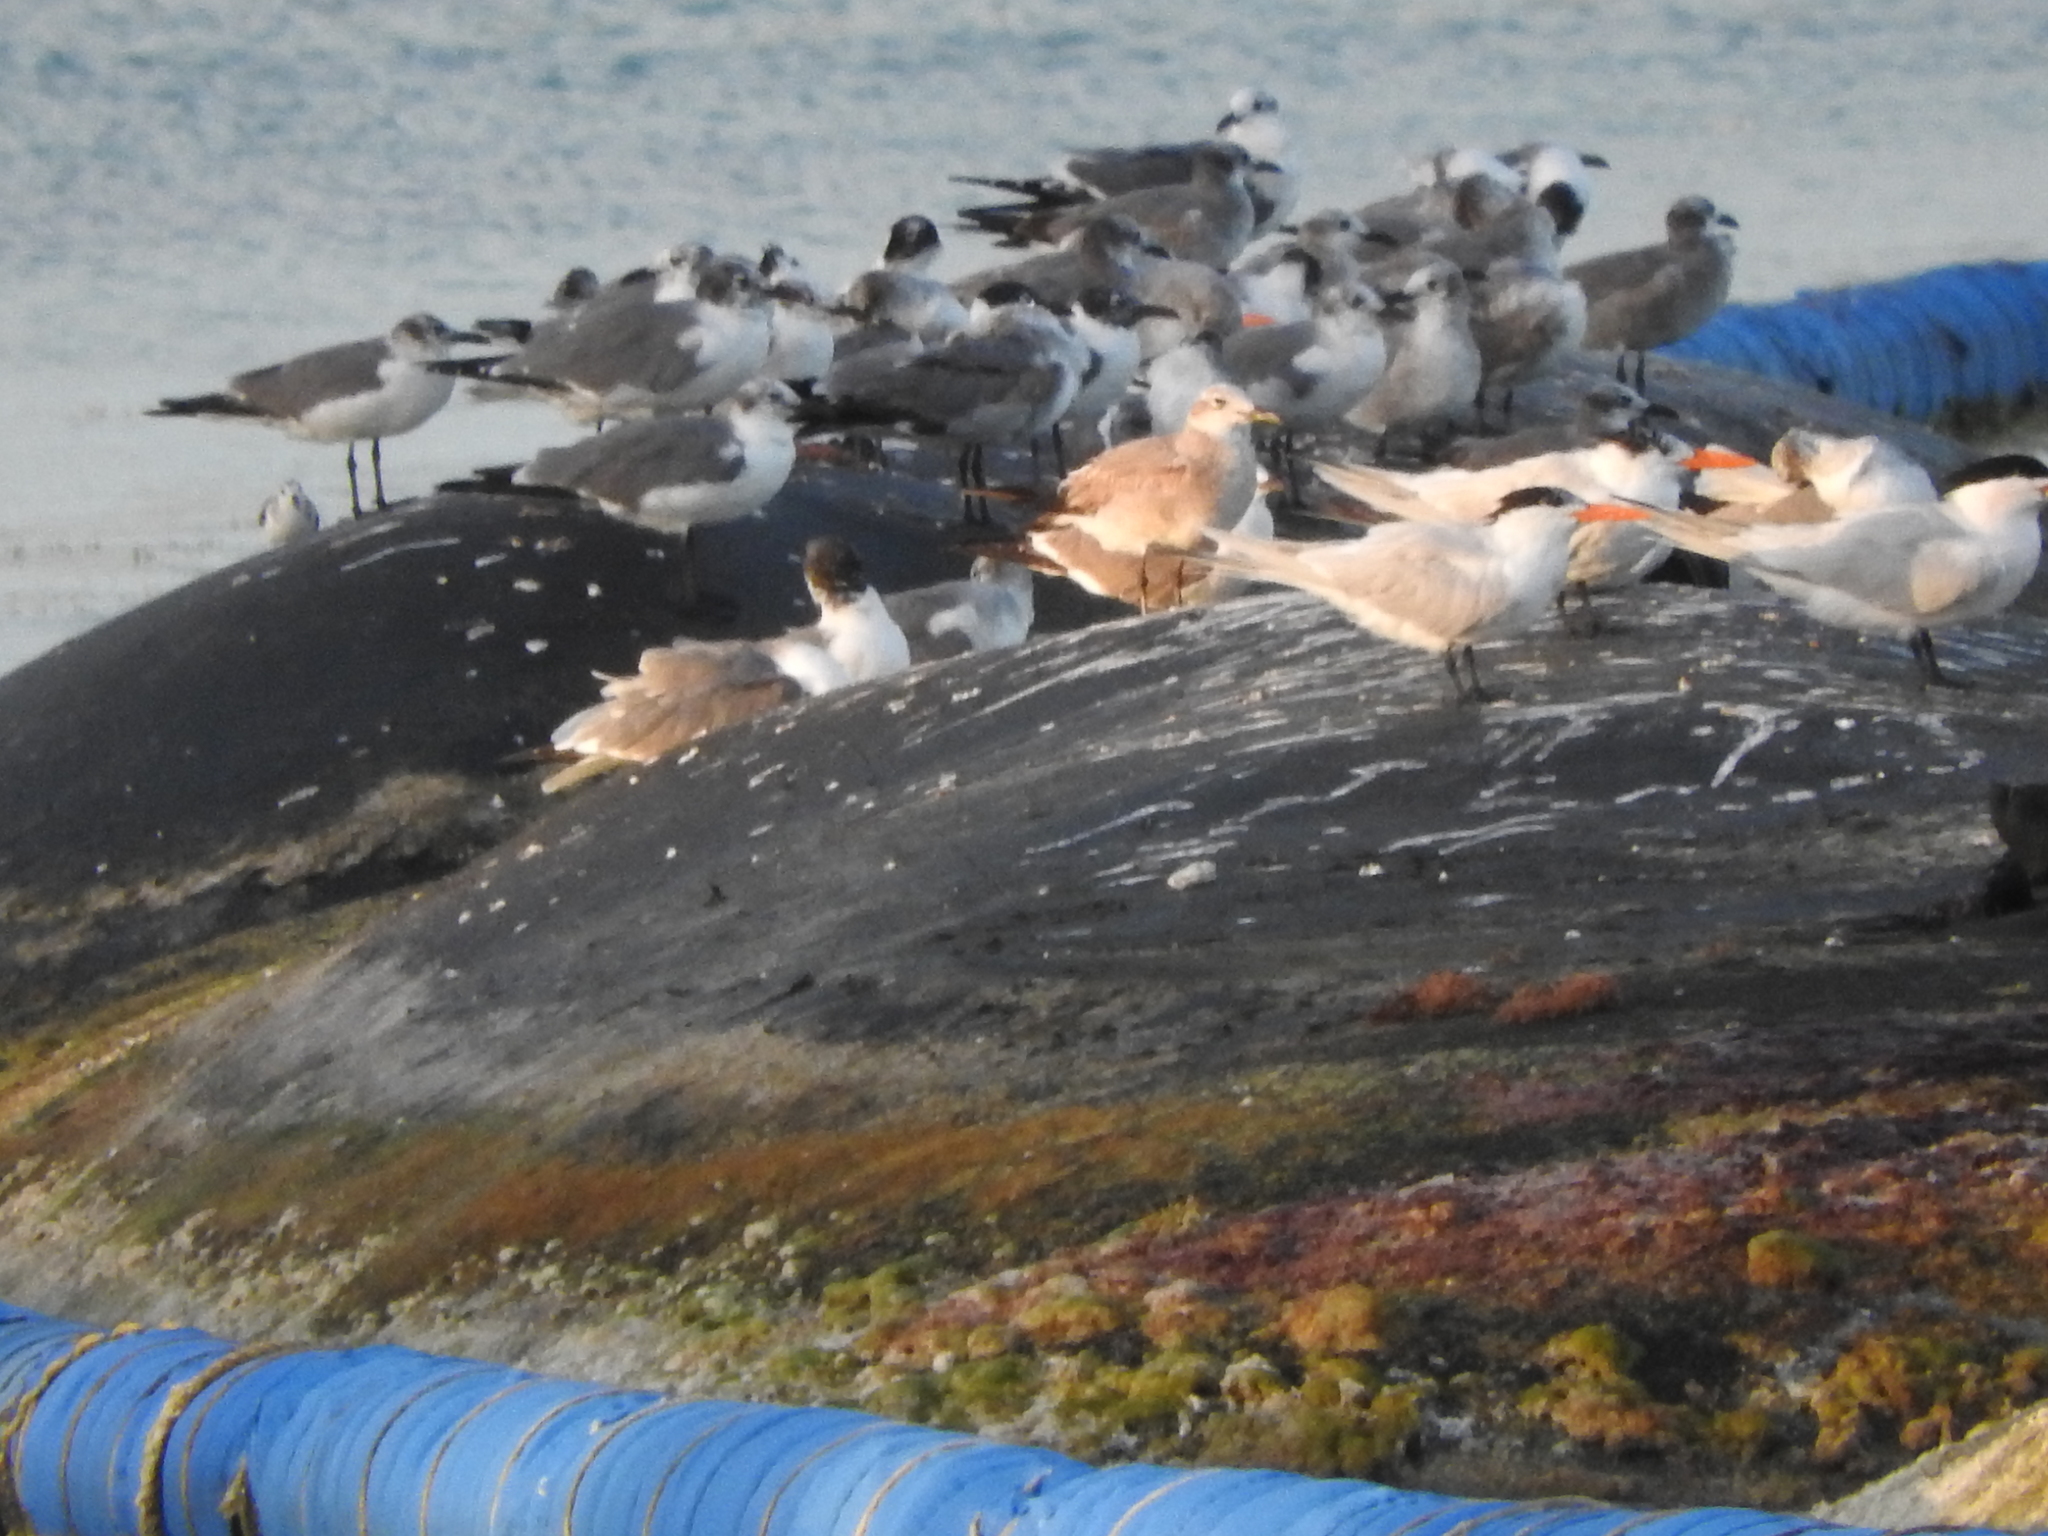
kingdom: Animalia
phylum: Chordata
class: Aves
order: Charadriiformes
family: Laridae
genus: Thalasseus
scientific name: Thalasseus maximus
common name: Royal tern
